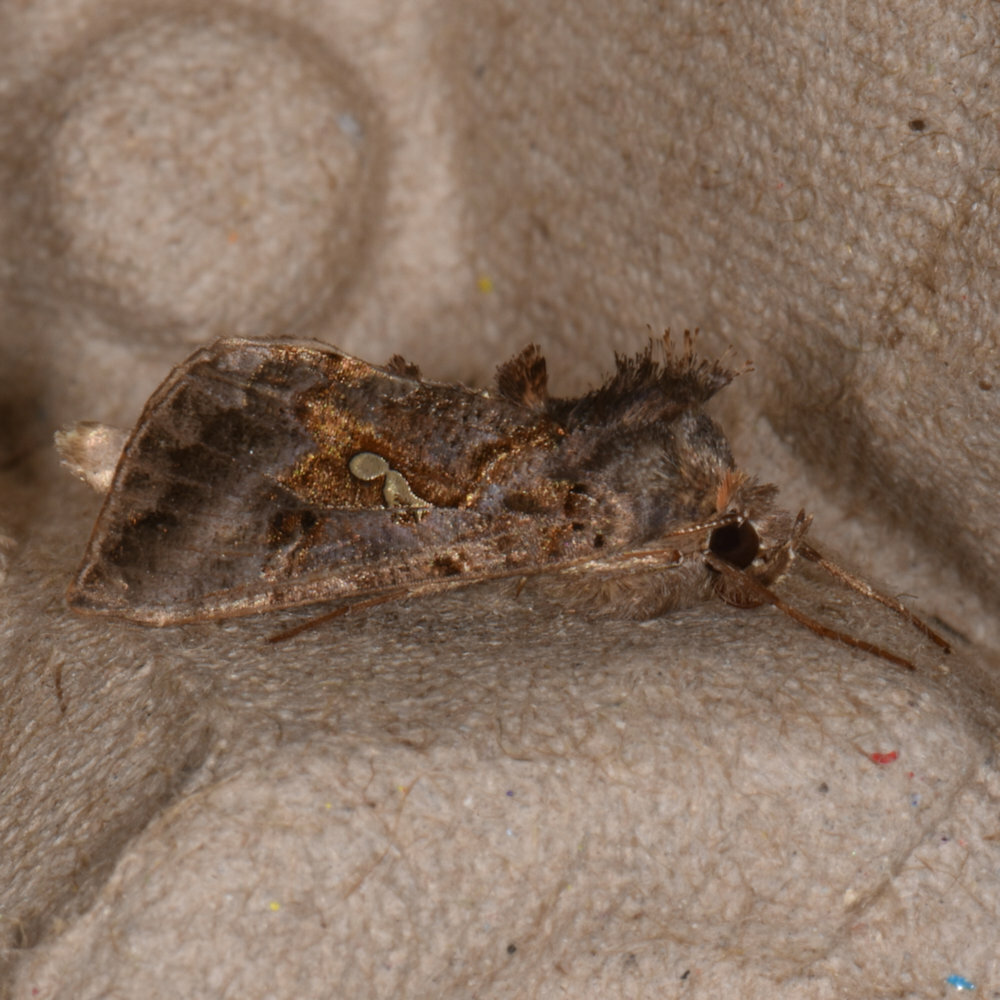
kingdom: Animalia
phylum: Arthropoda
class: Insecta
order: Lepidoptera
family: Noctuidae
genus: Autographa
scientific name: Autographa precationis
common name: Common looper moth
